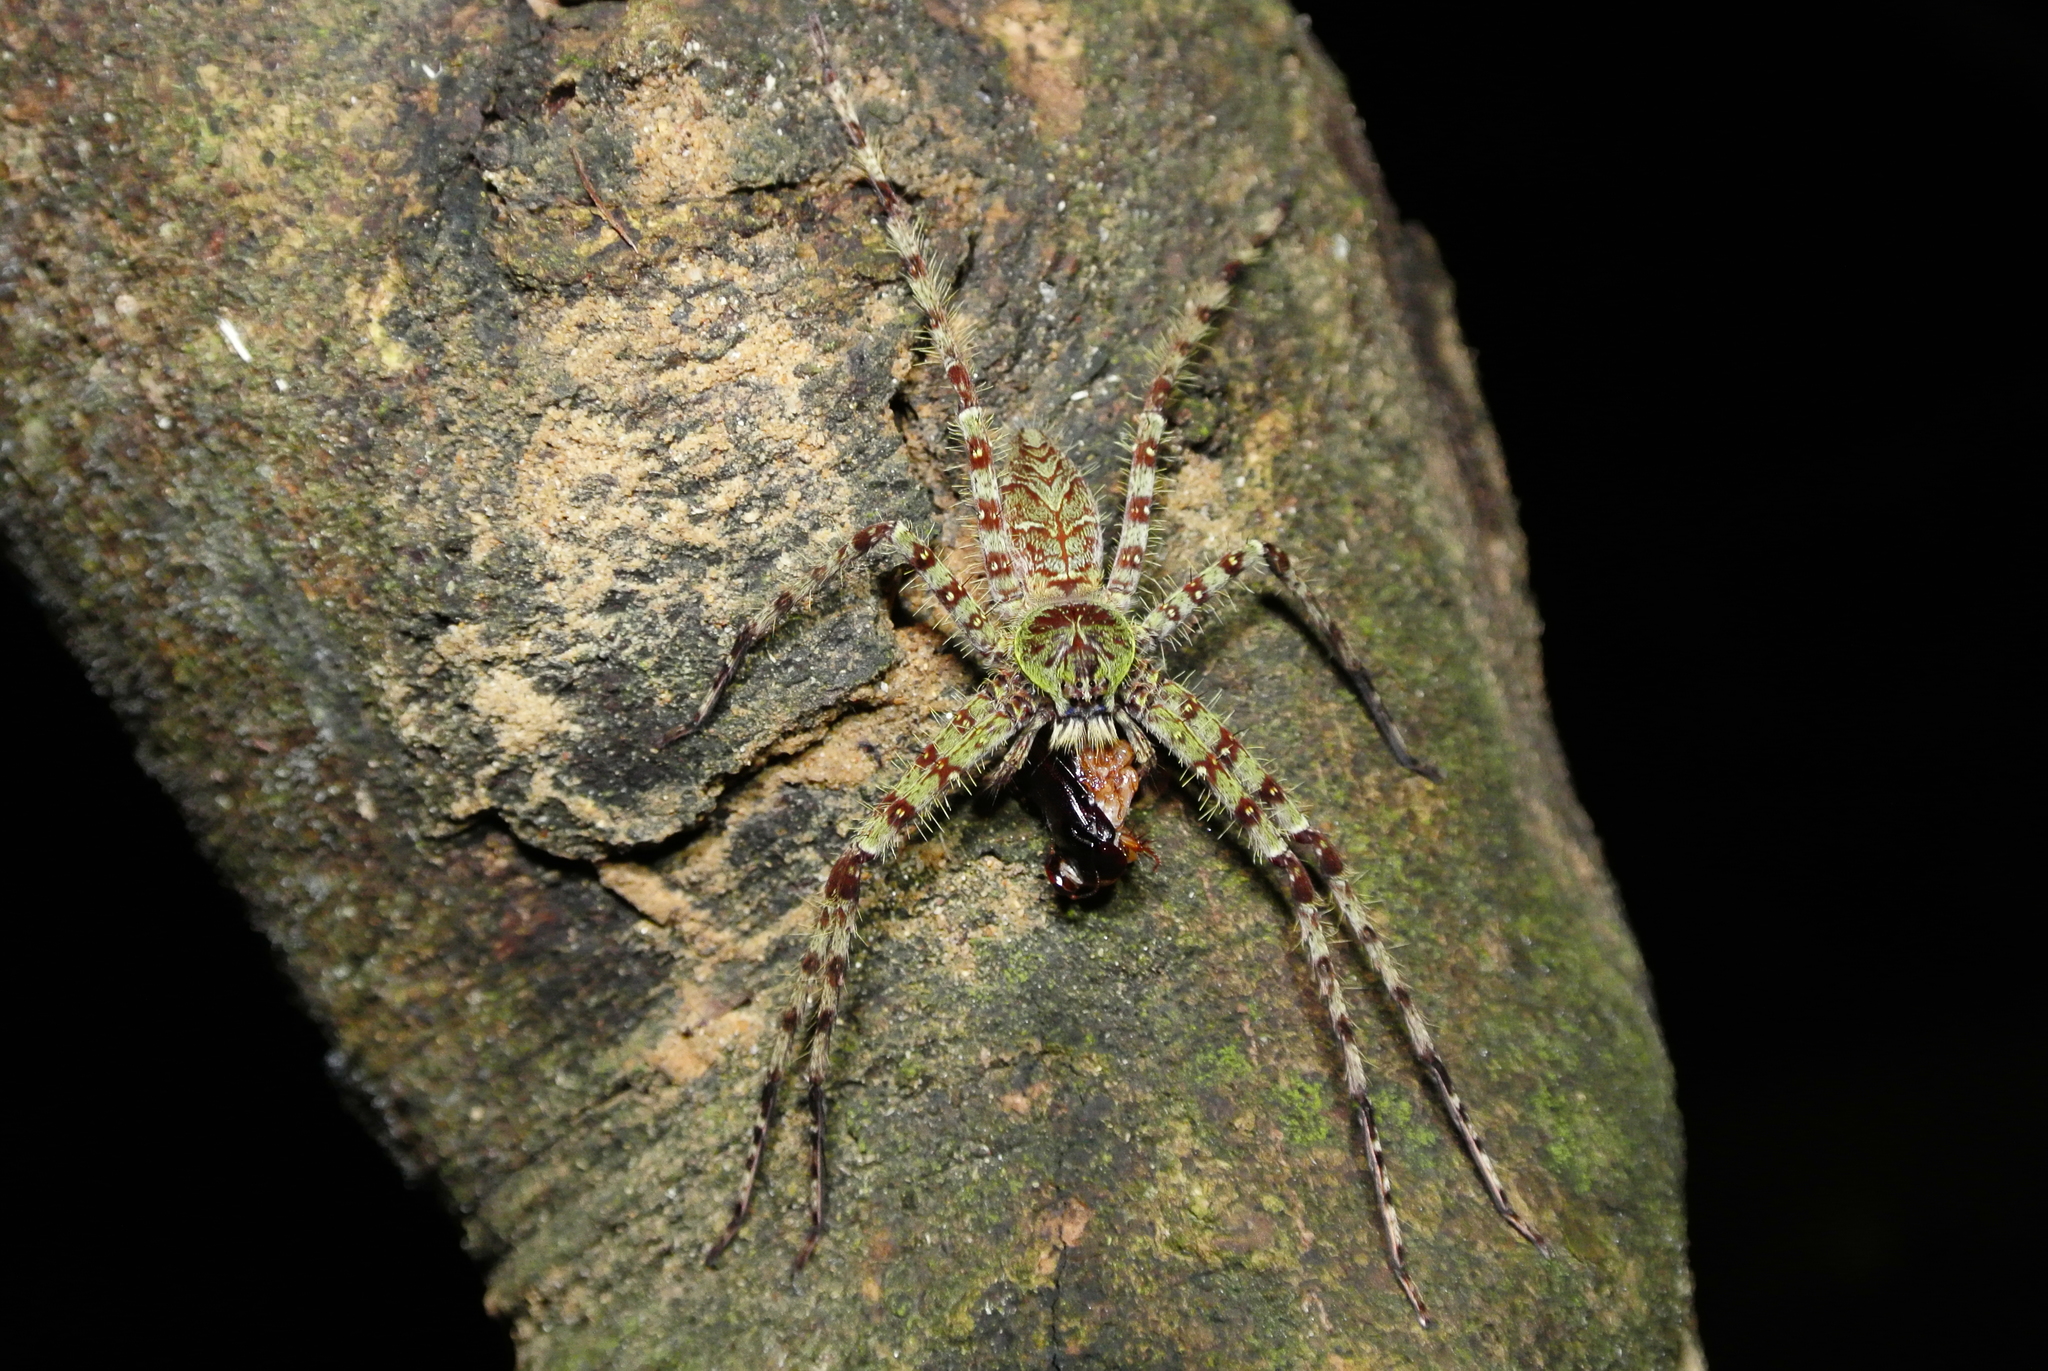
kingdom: Animalia
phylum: Arthropoda
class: Arachnida
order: Araneae
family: Sparassidae
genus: Heteropoda
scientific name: Heteropoda boiei
